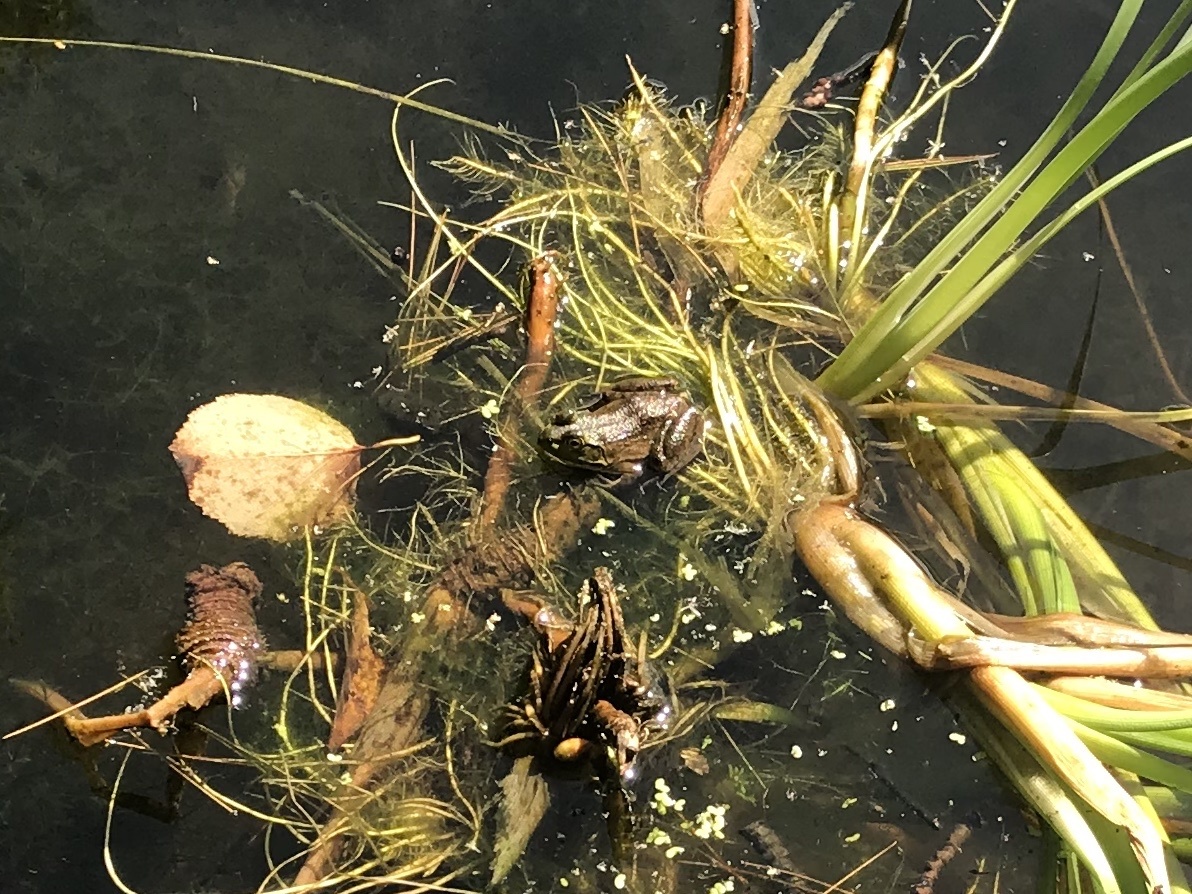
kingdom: Animalia
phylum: Chordata
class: Amphibia
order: Anura
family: Ranidae
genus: Lithobates
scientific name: Lithobates catesbeianus
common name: American bullfrog
